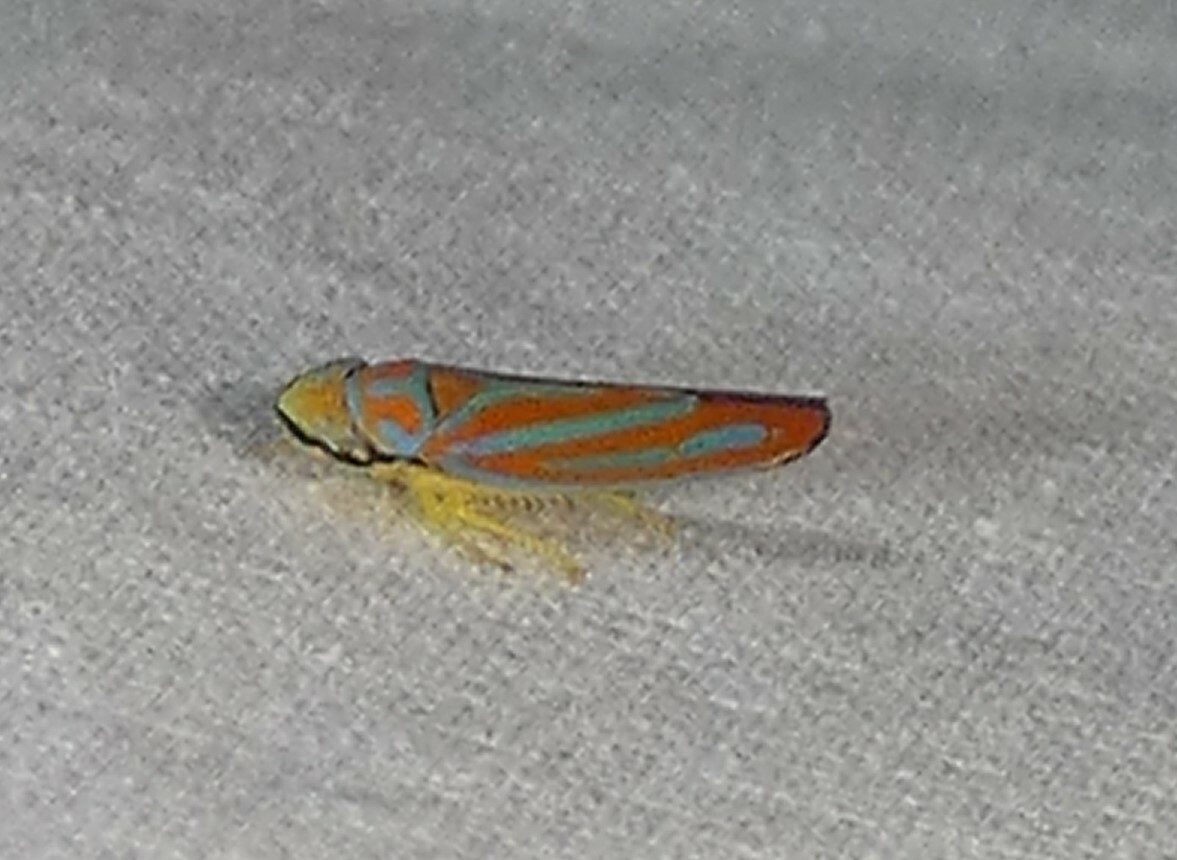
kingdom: Animalia
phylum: Arthropoda
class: Insecta
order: Hemiptera
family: Cicadellidae
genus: Graphocephala
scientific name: Graphocephala coccinea
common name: Candy-striped leafhopper
